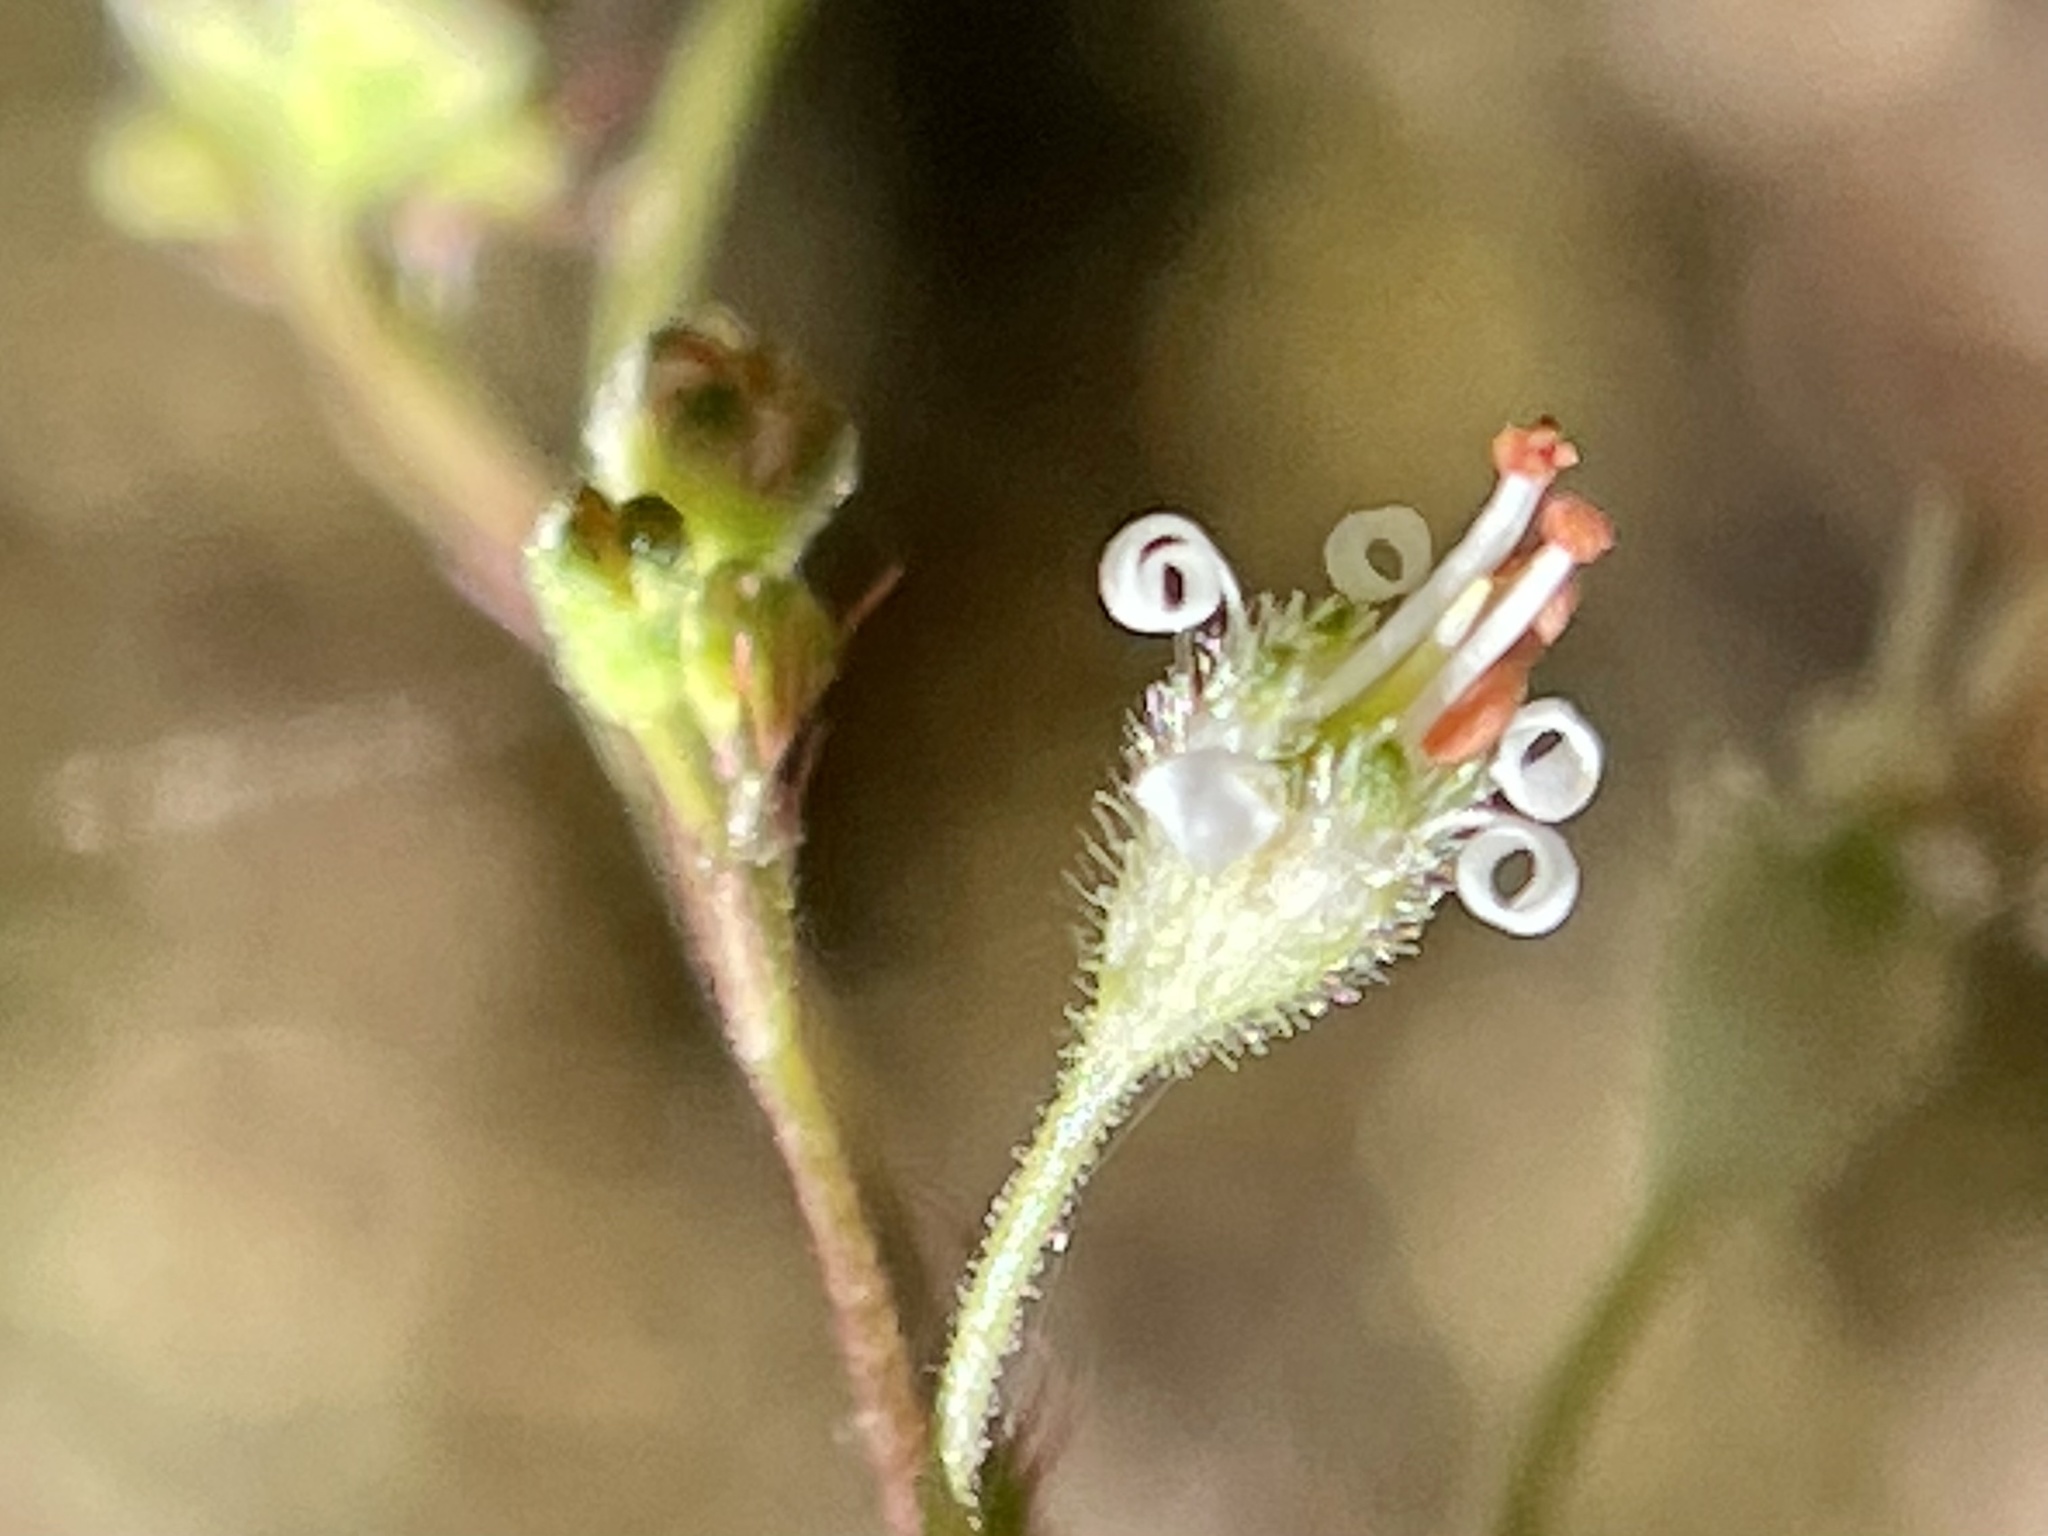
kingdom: Plantae
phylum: Tracheophyta
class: Magnoliopsida
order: Saxifragales
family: Saxifragaceae
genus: Heuchera
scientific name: Heuchera micrantha
